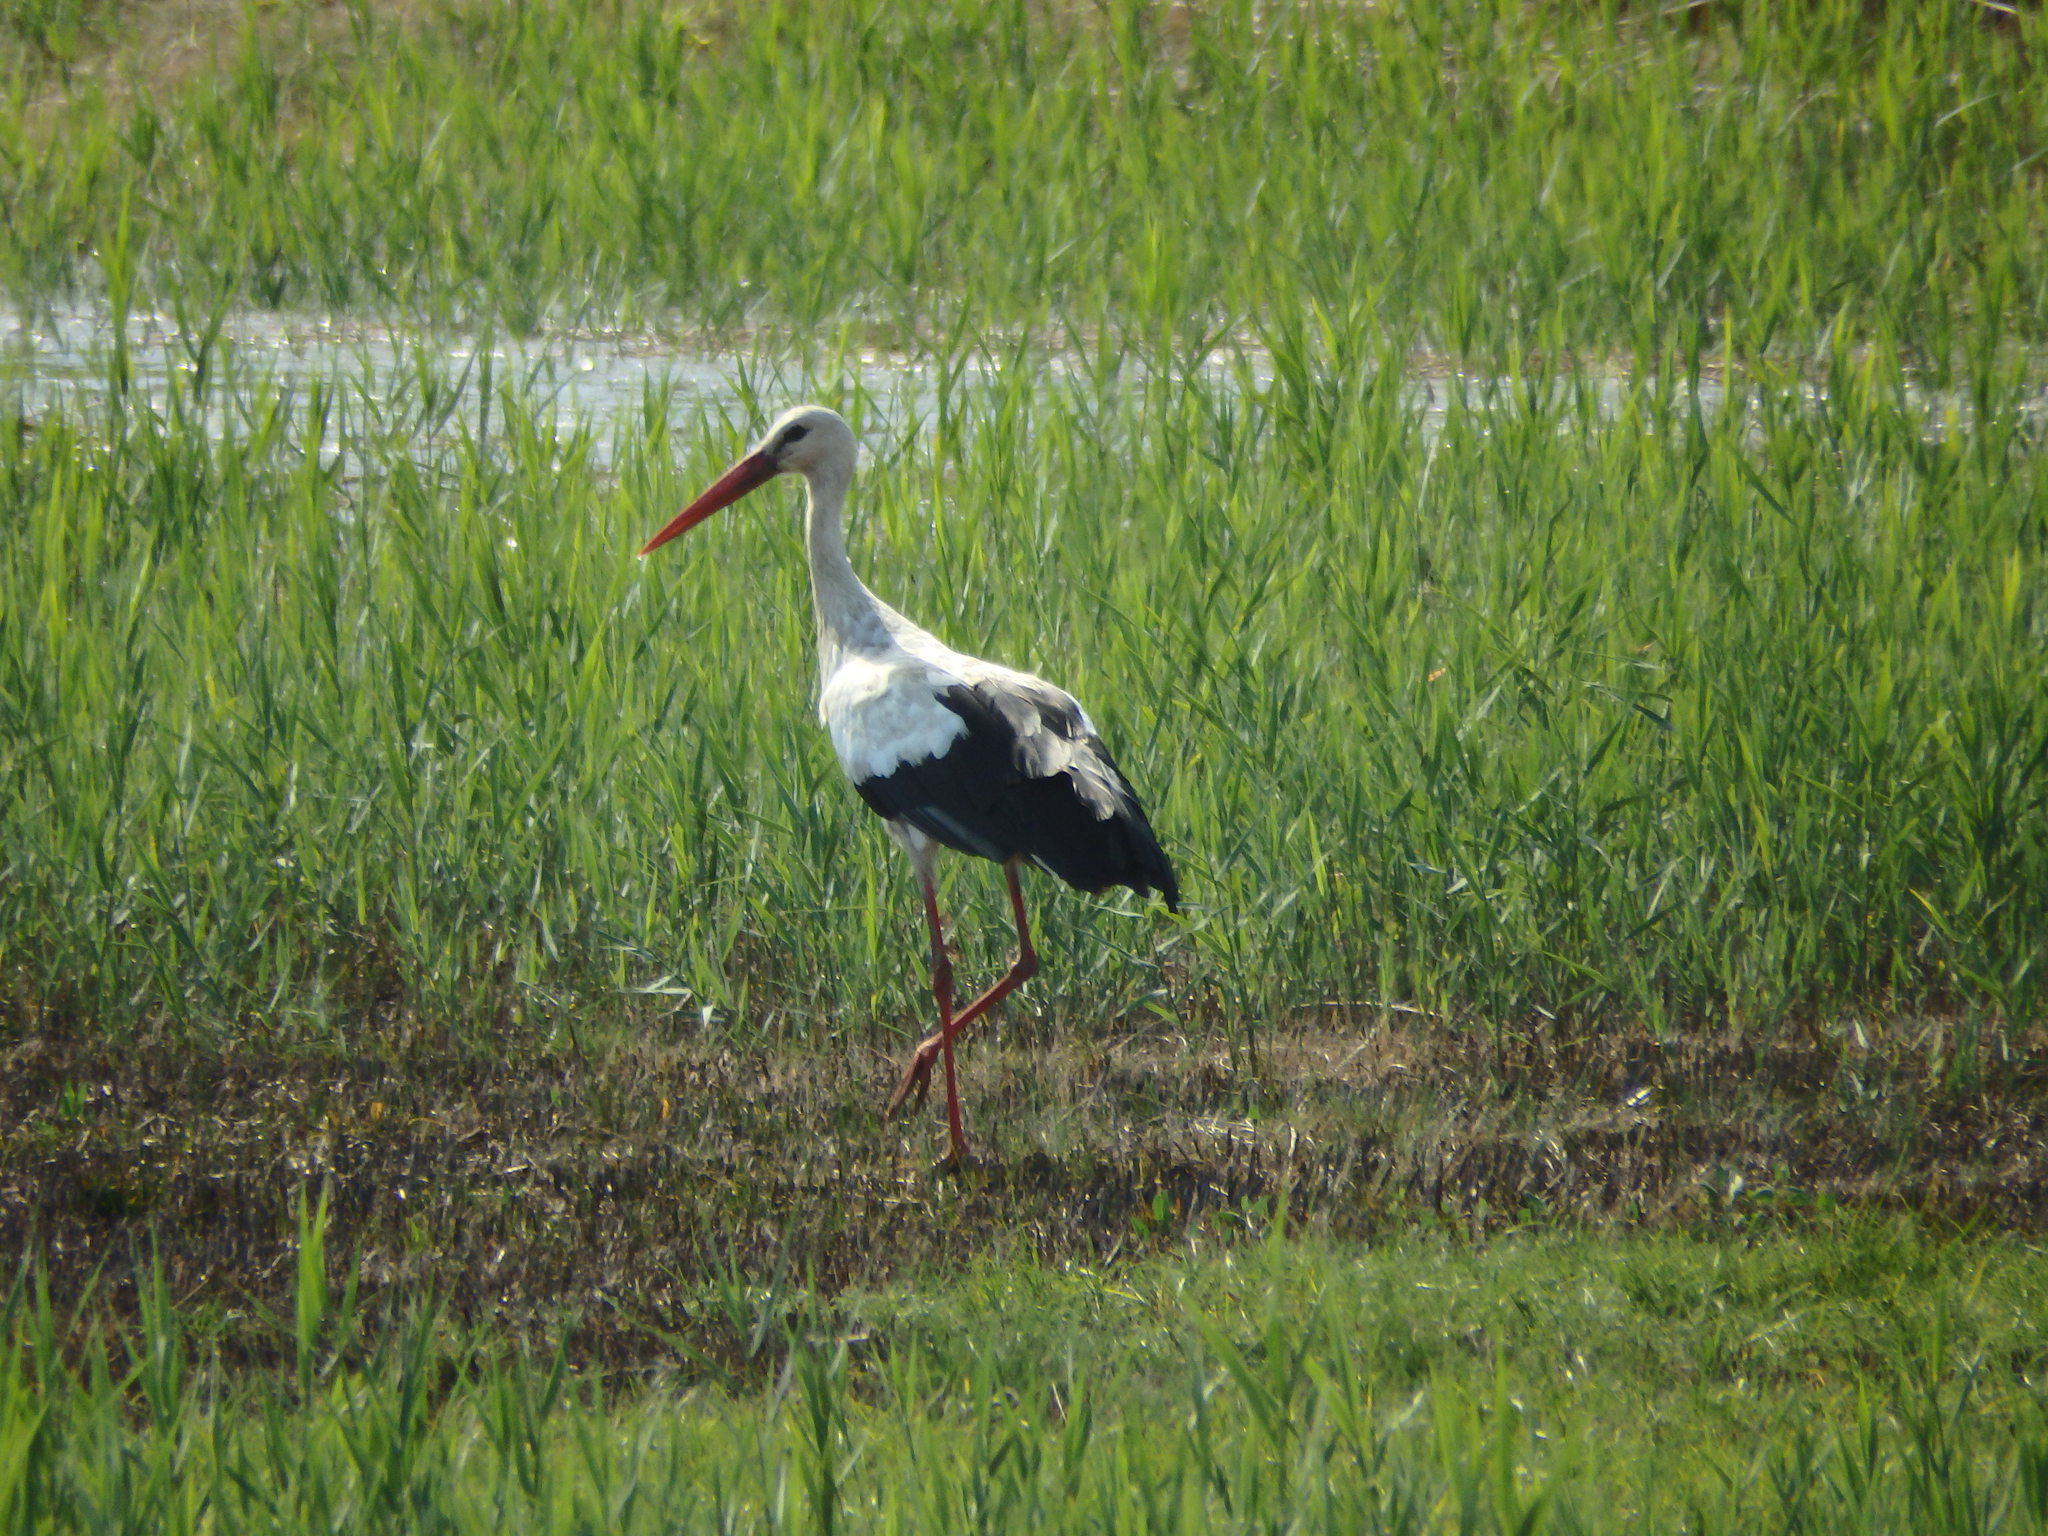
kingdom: Animalia
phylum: Chordata
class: Aves
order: Ciconiiformes
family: Ciconiidae
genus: Ciconia
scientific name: Ciconia ciconia
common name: White stork
